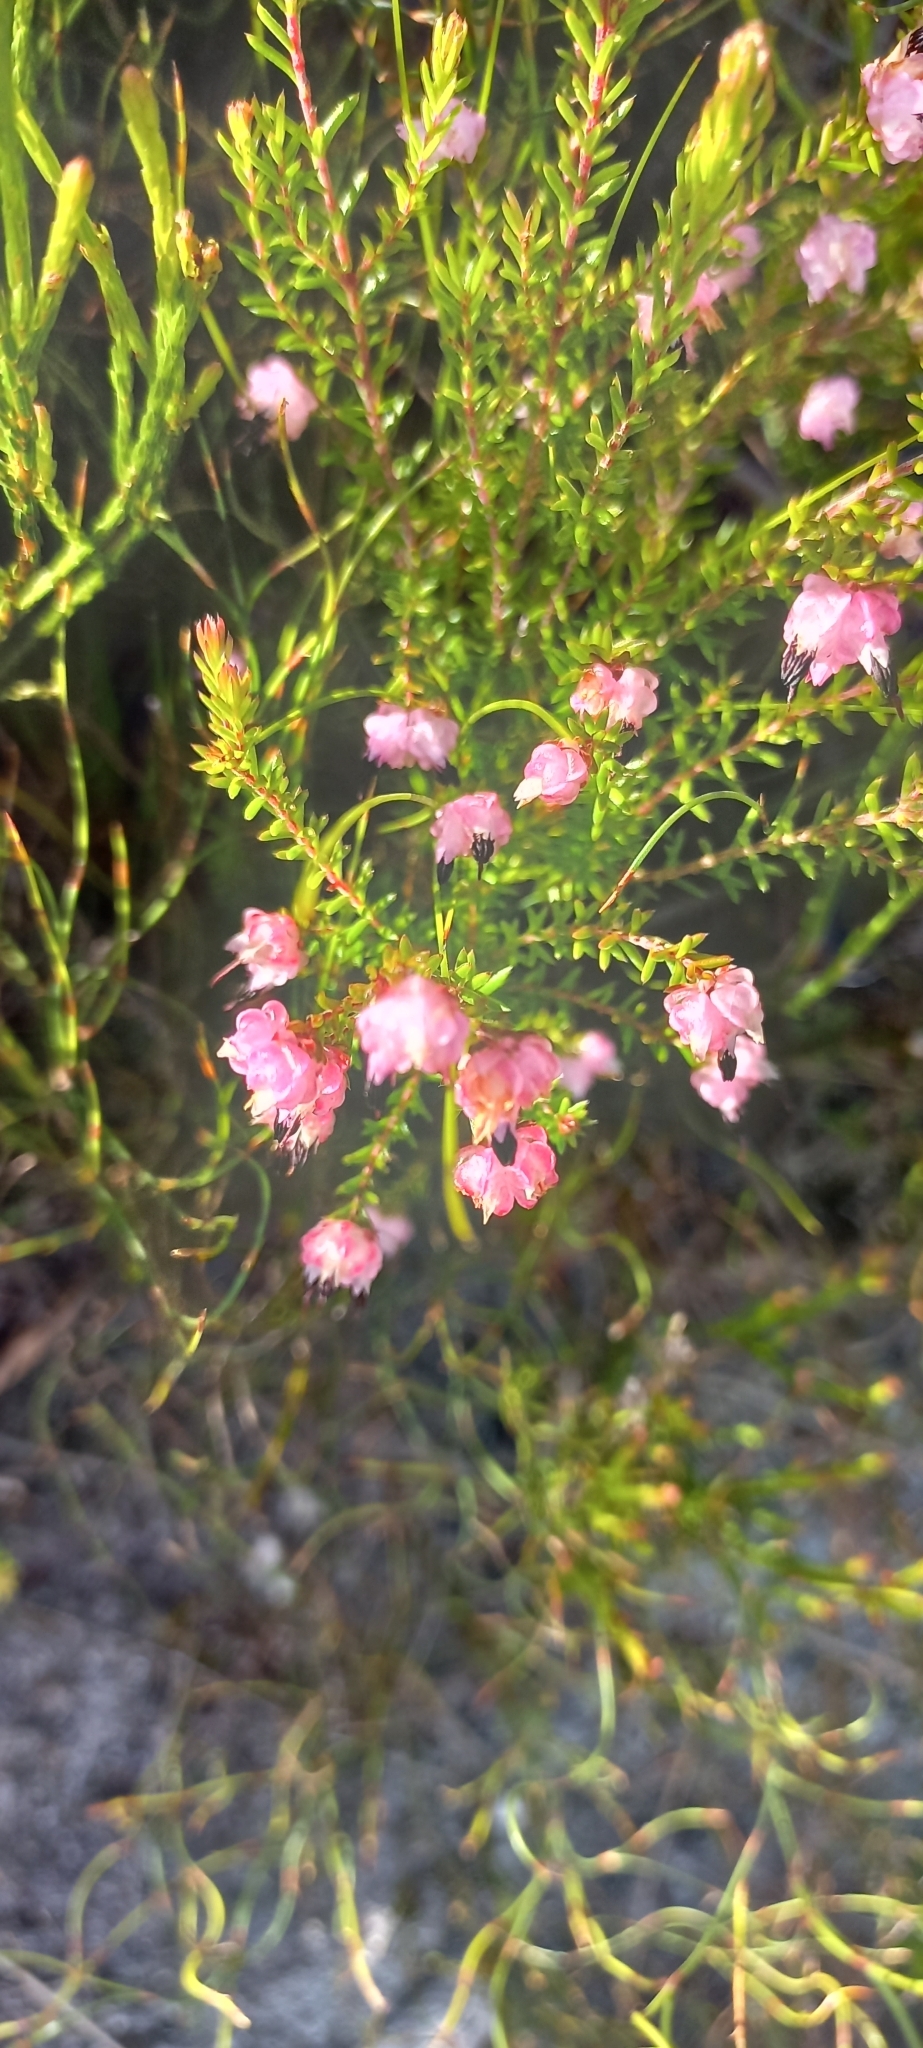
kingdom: Plantae
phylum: Tracheophyta
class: Magnoliopsida
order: Ericales
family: Ericaceae
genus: Erica
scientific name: Erica spumosa
